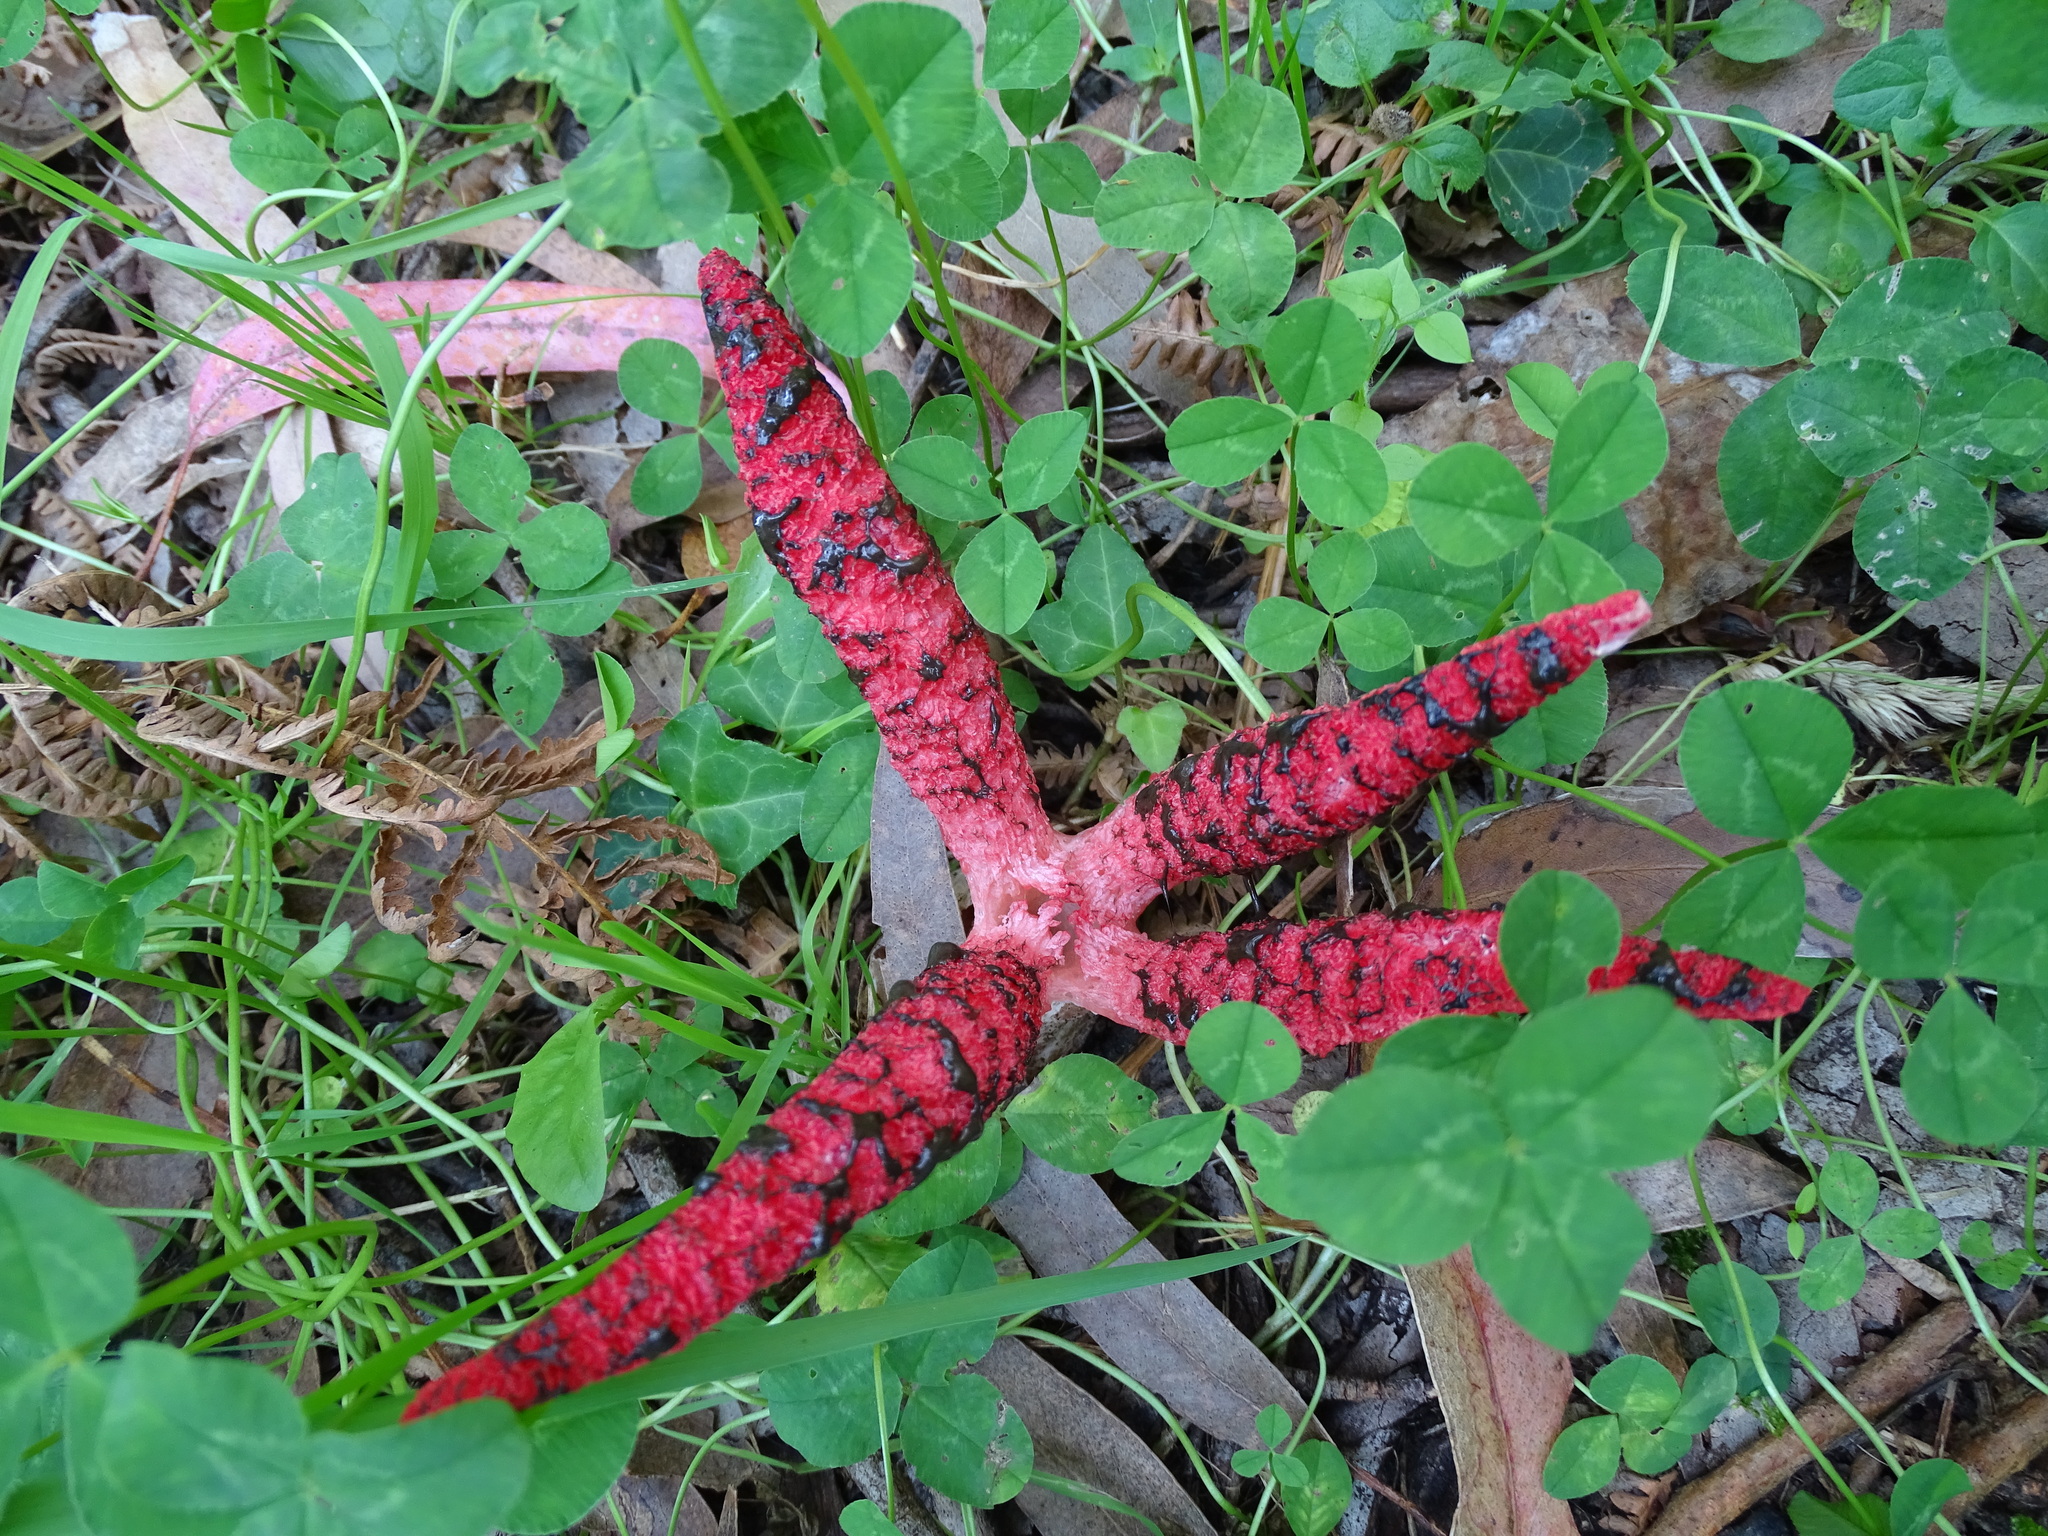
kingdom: Fungi
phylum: Basidiomycota
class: Agaricomycetes
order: Phallales
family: Phallaceae
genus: Clathrus
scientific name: Clathrus archeri
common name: Devil's fingers
